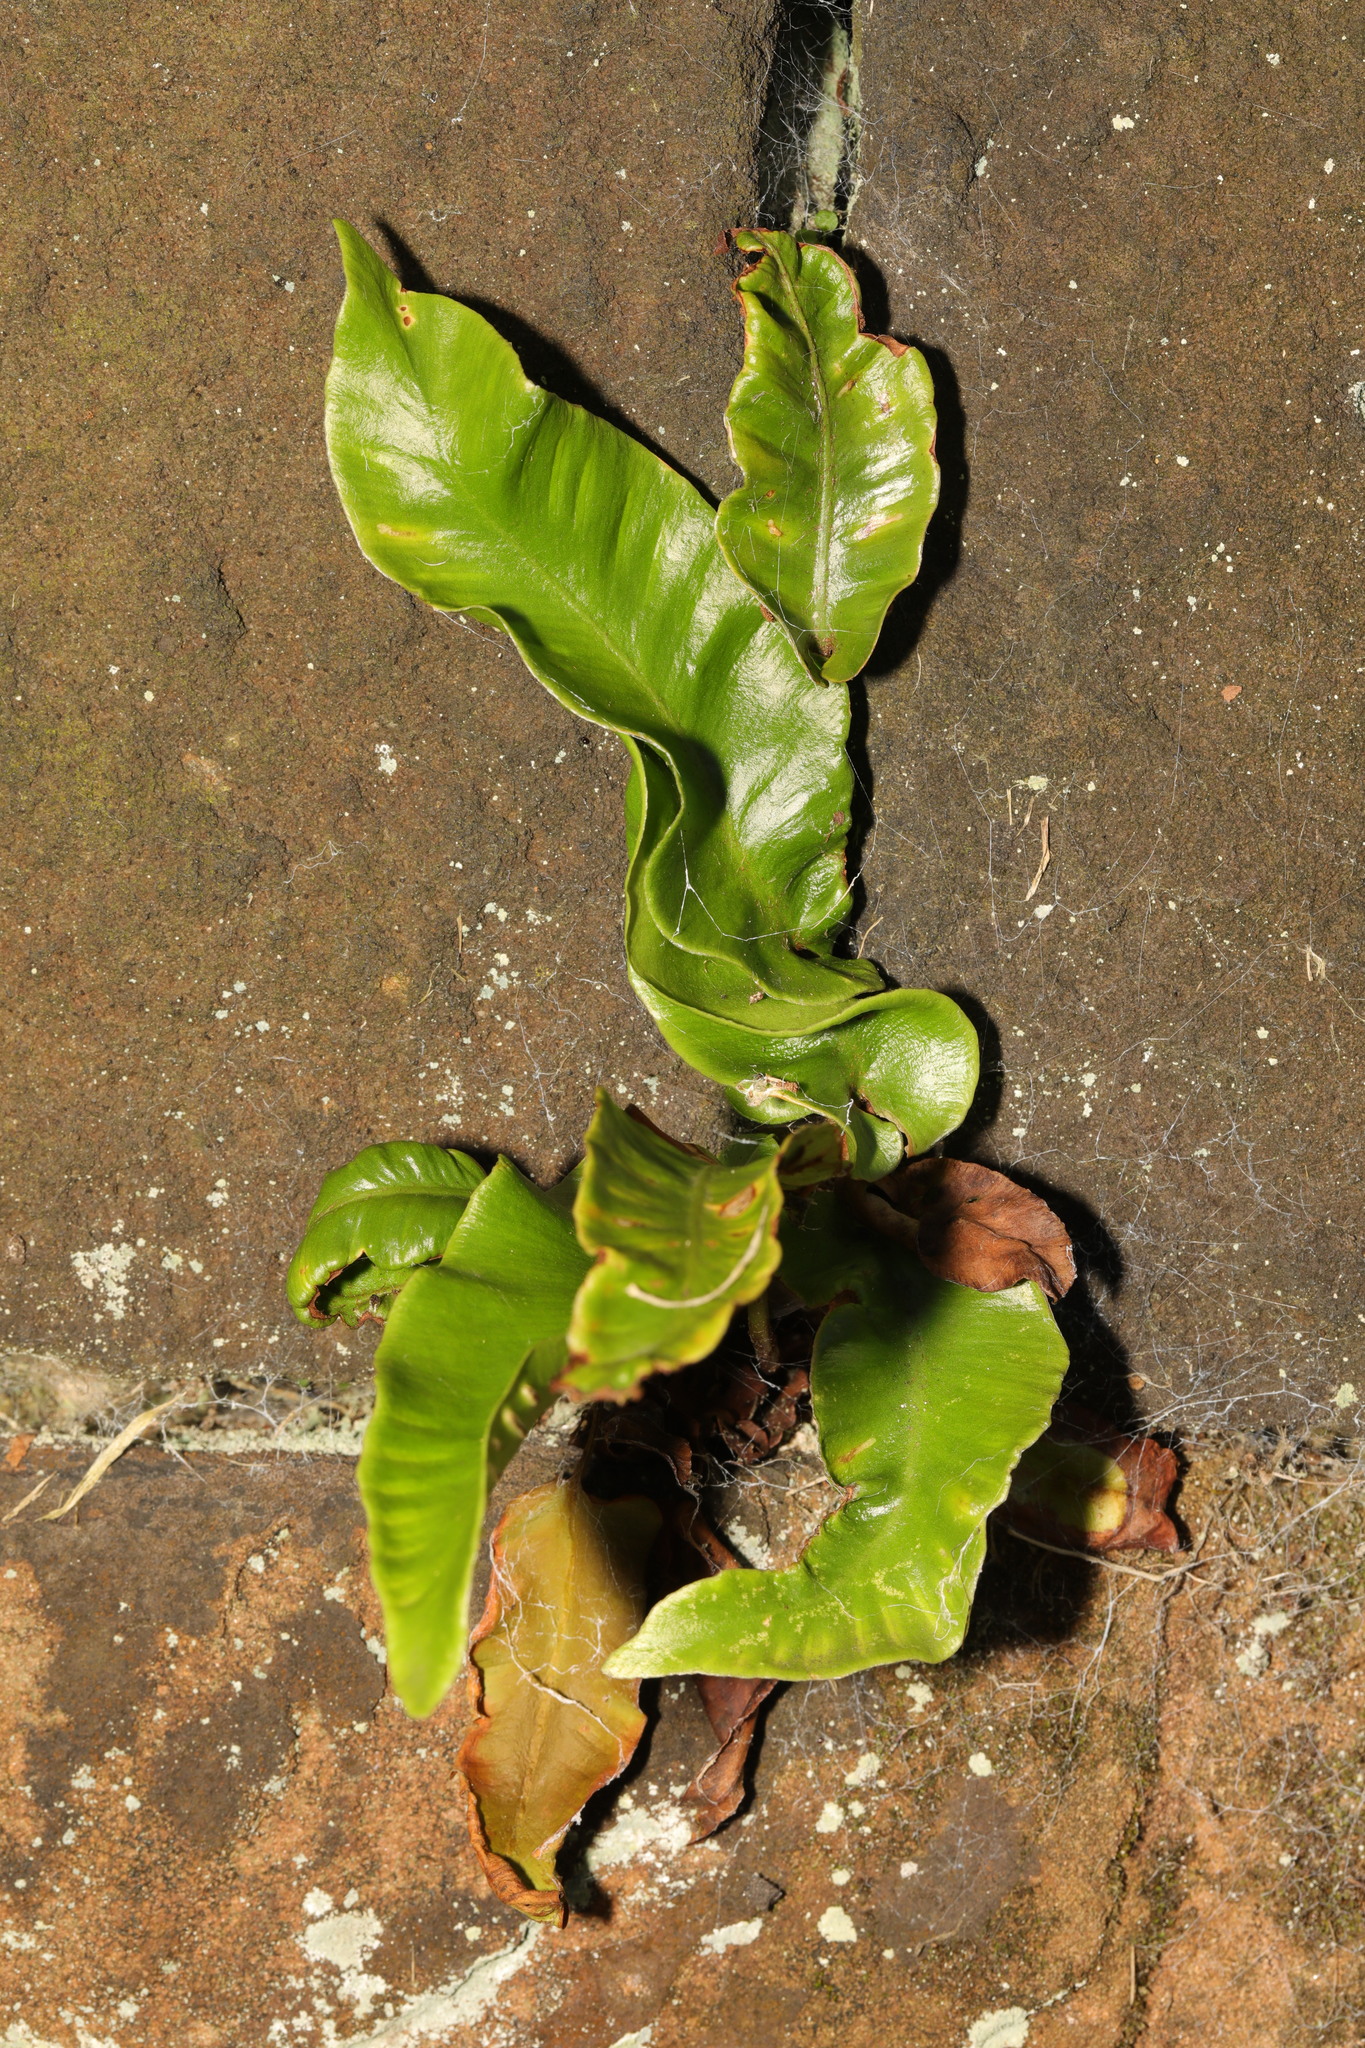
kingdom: Plantae
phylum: Tracheophyta
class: Polypodiopsida
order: Polypodiales
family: Aspleniaceae
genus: Asplenium
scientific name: Asplenium scolopendrium
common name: Hart's-tongue fern
